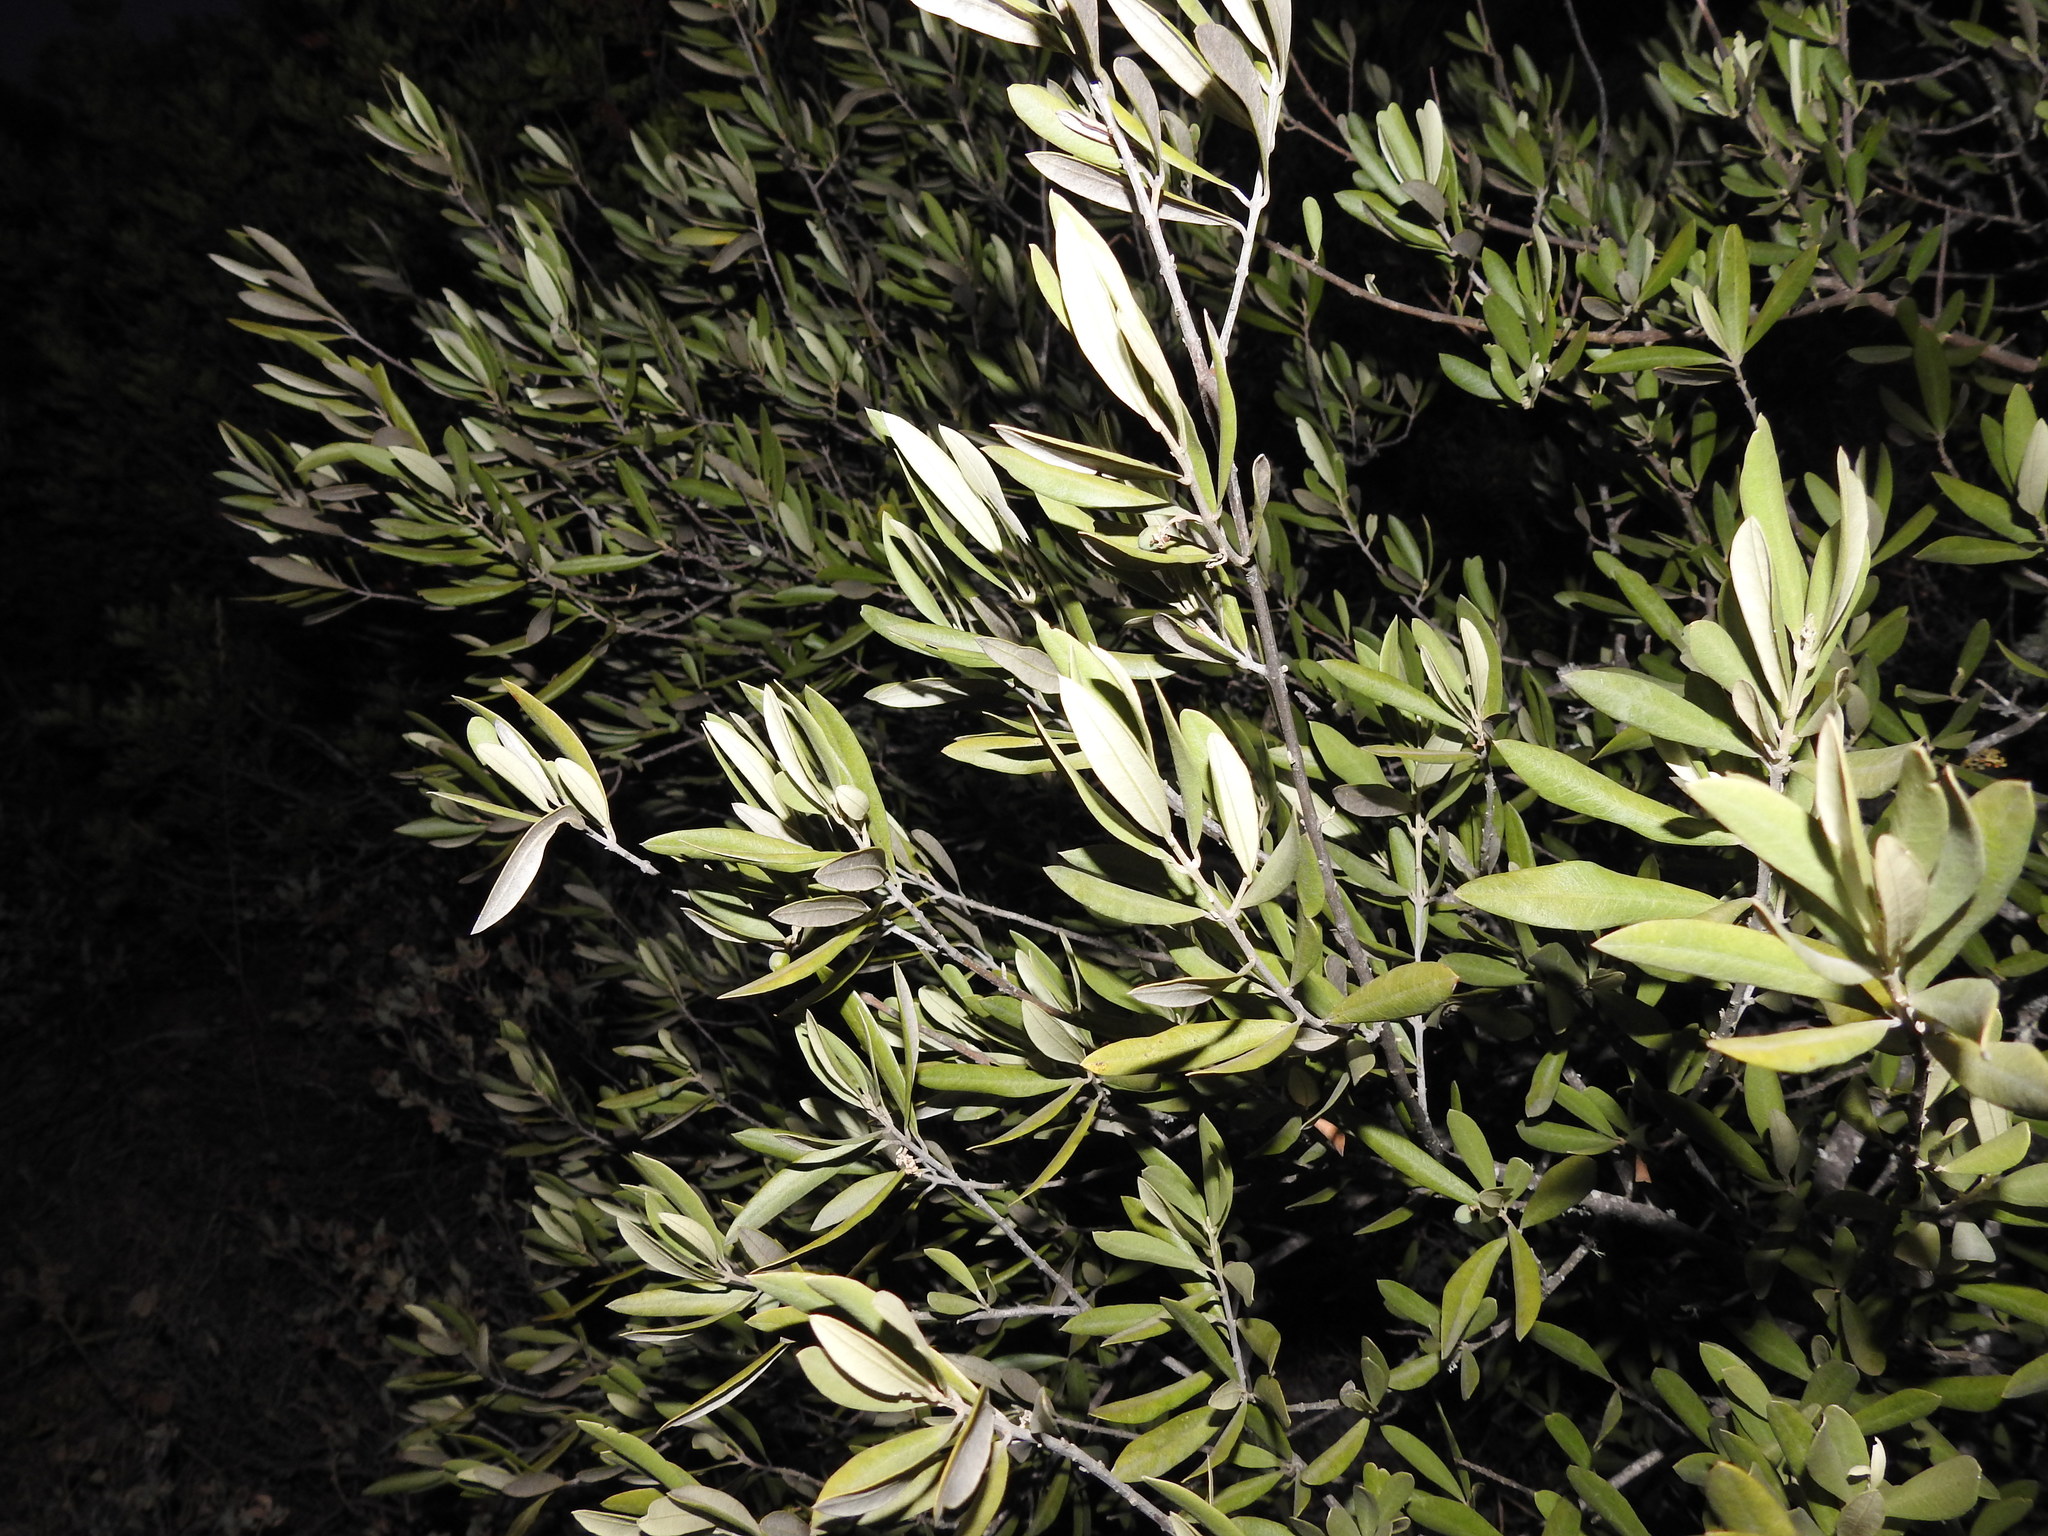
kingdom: Plantae
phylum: Tracheophyta
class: Magnoliopsida
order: Lamiales
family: Oleaceae
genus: Olea
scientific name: Olea europaea
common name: Olive
